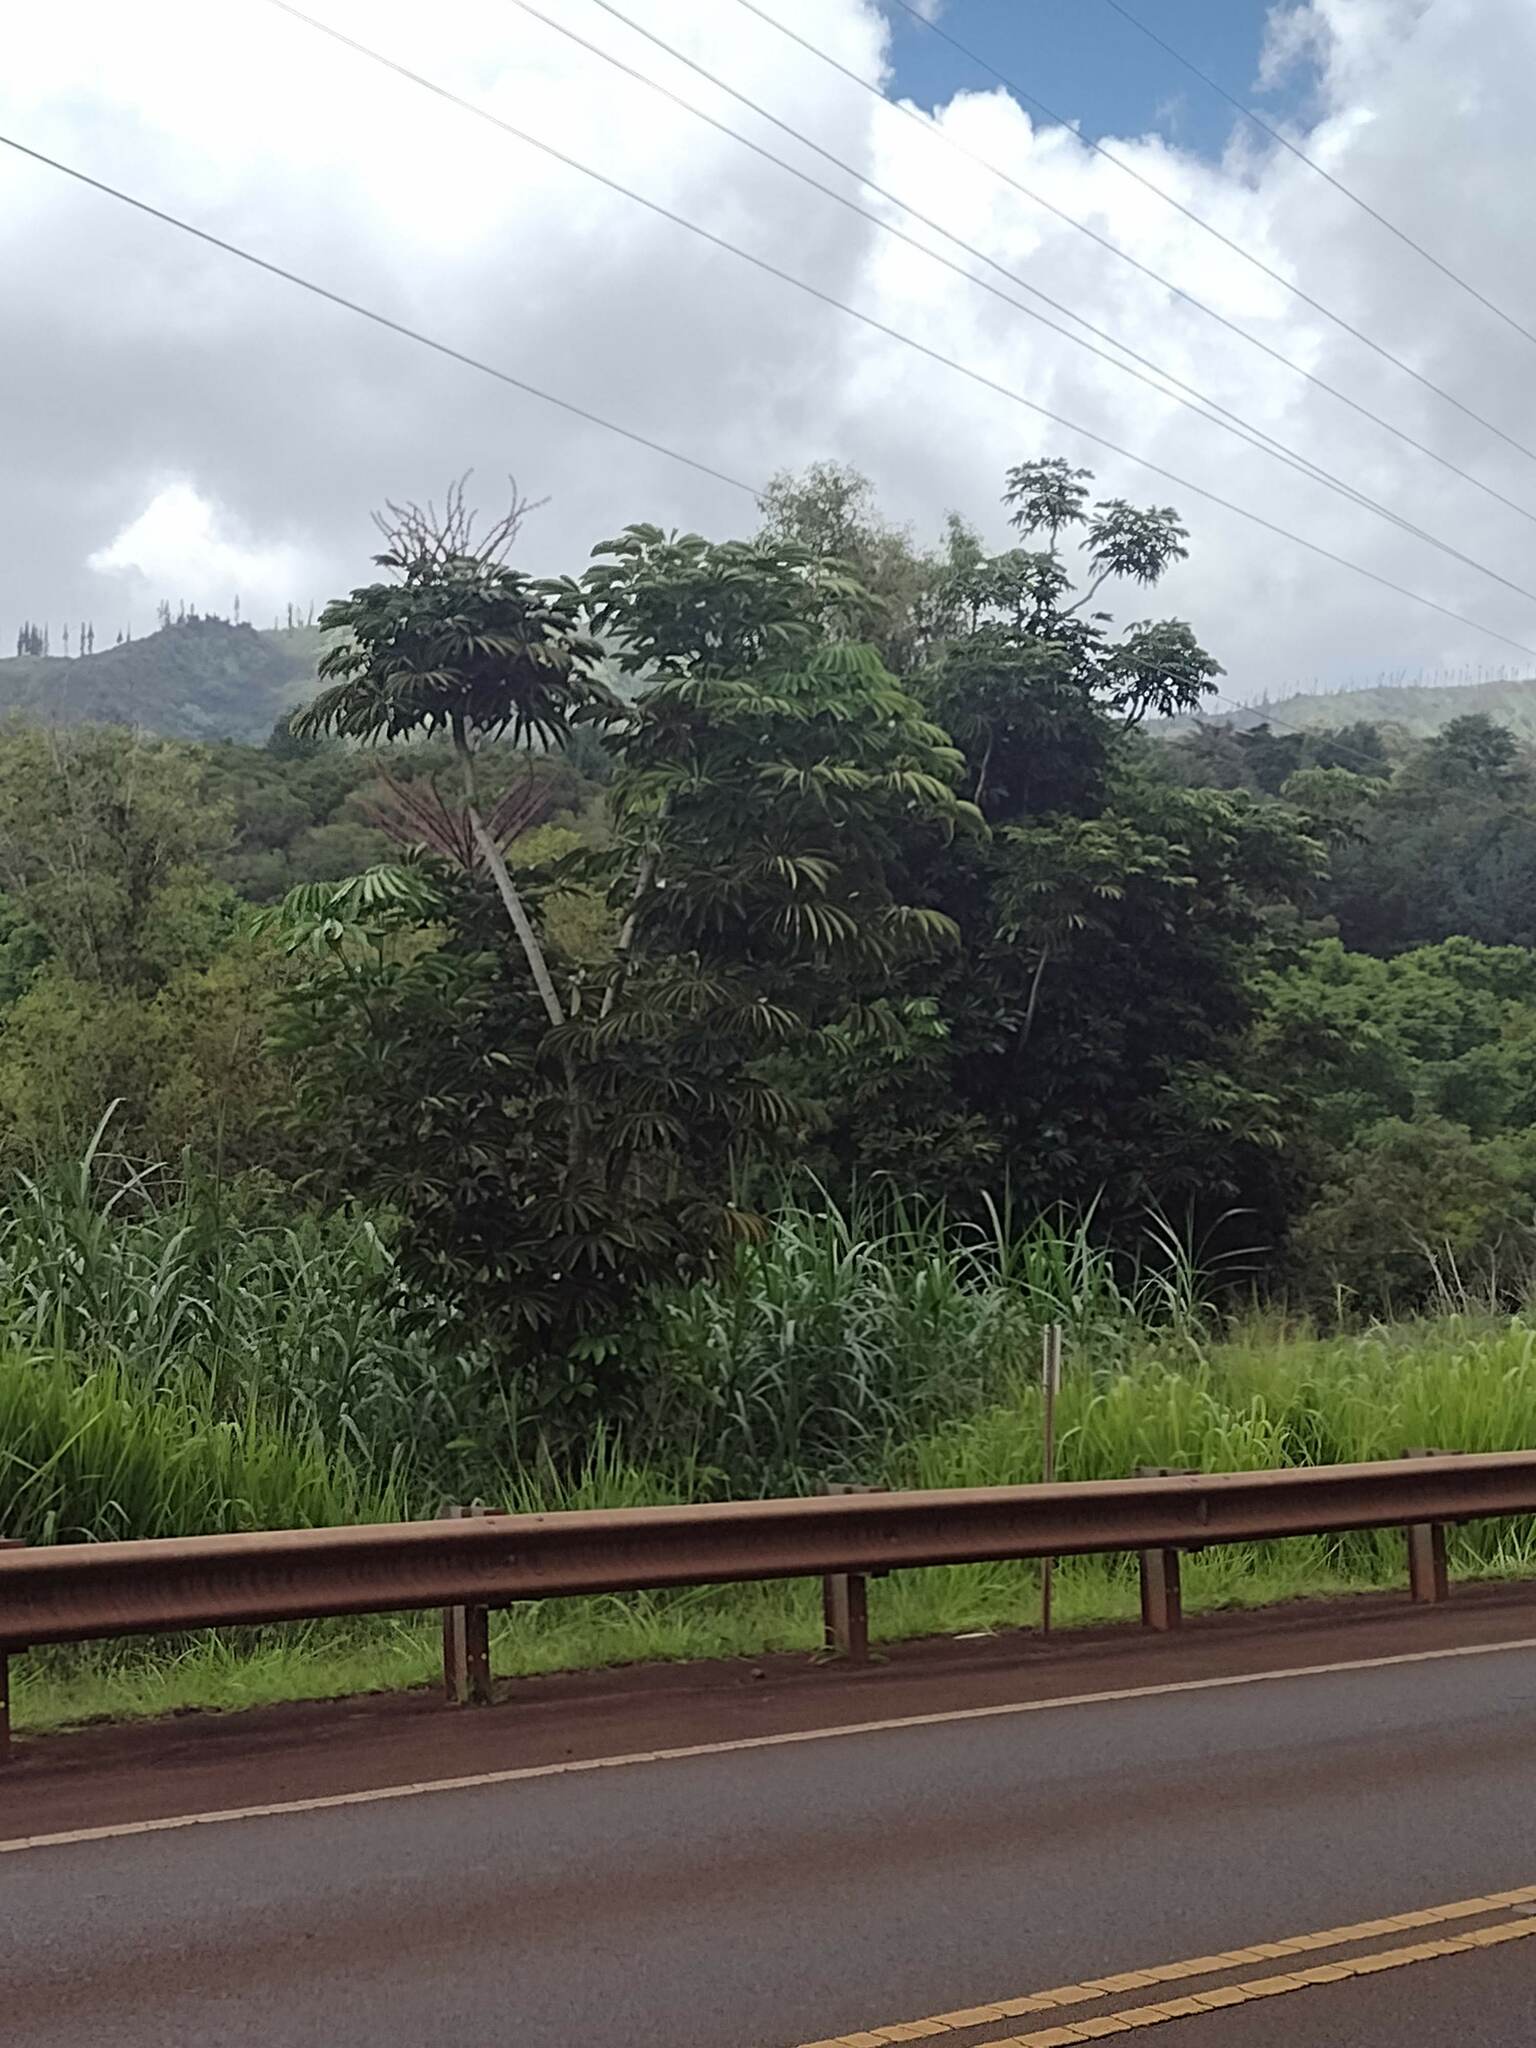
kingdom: Plantae
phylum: Tracheophyta
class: Magnoliopsida
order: Apiales
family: Araliaceae
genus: Heptapleurum
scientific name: Heptapleurum actinophyllum
